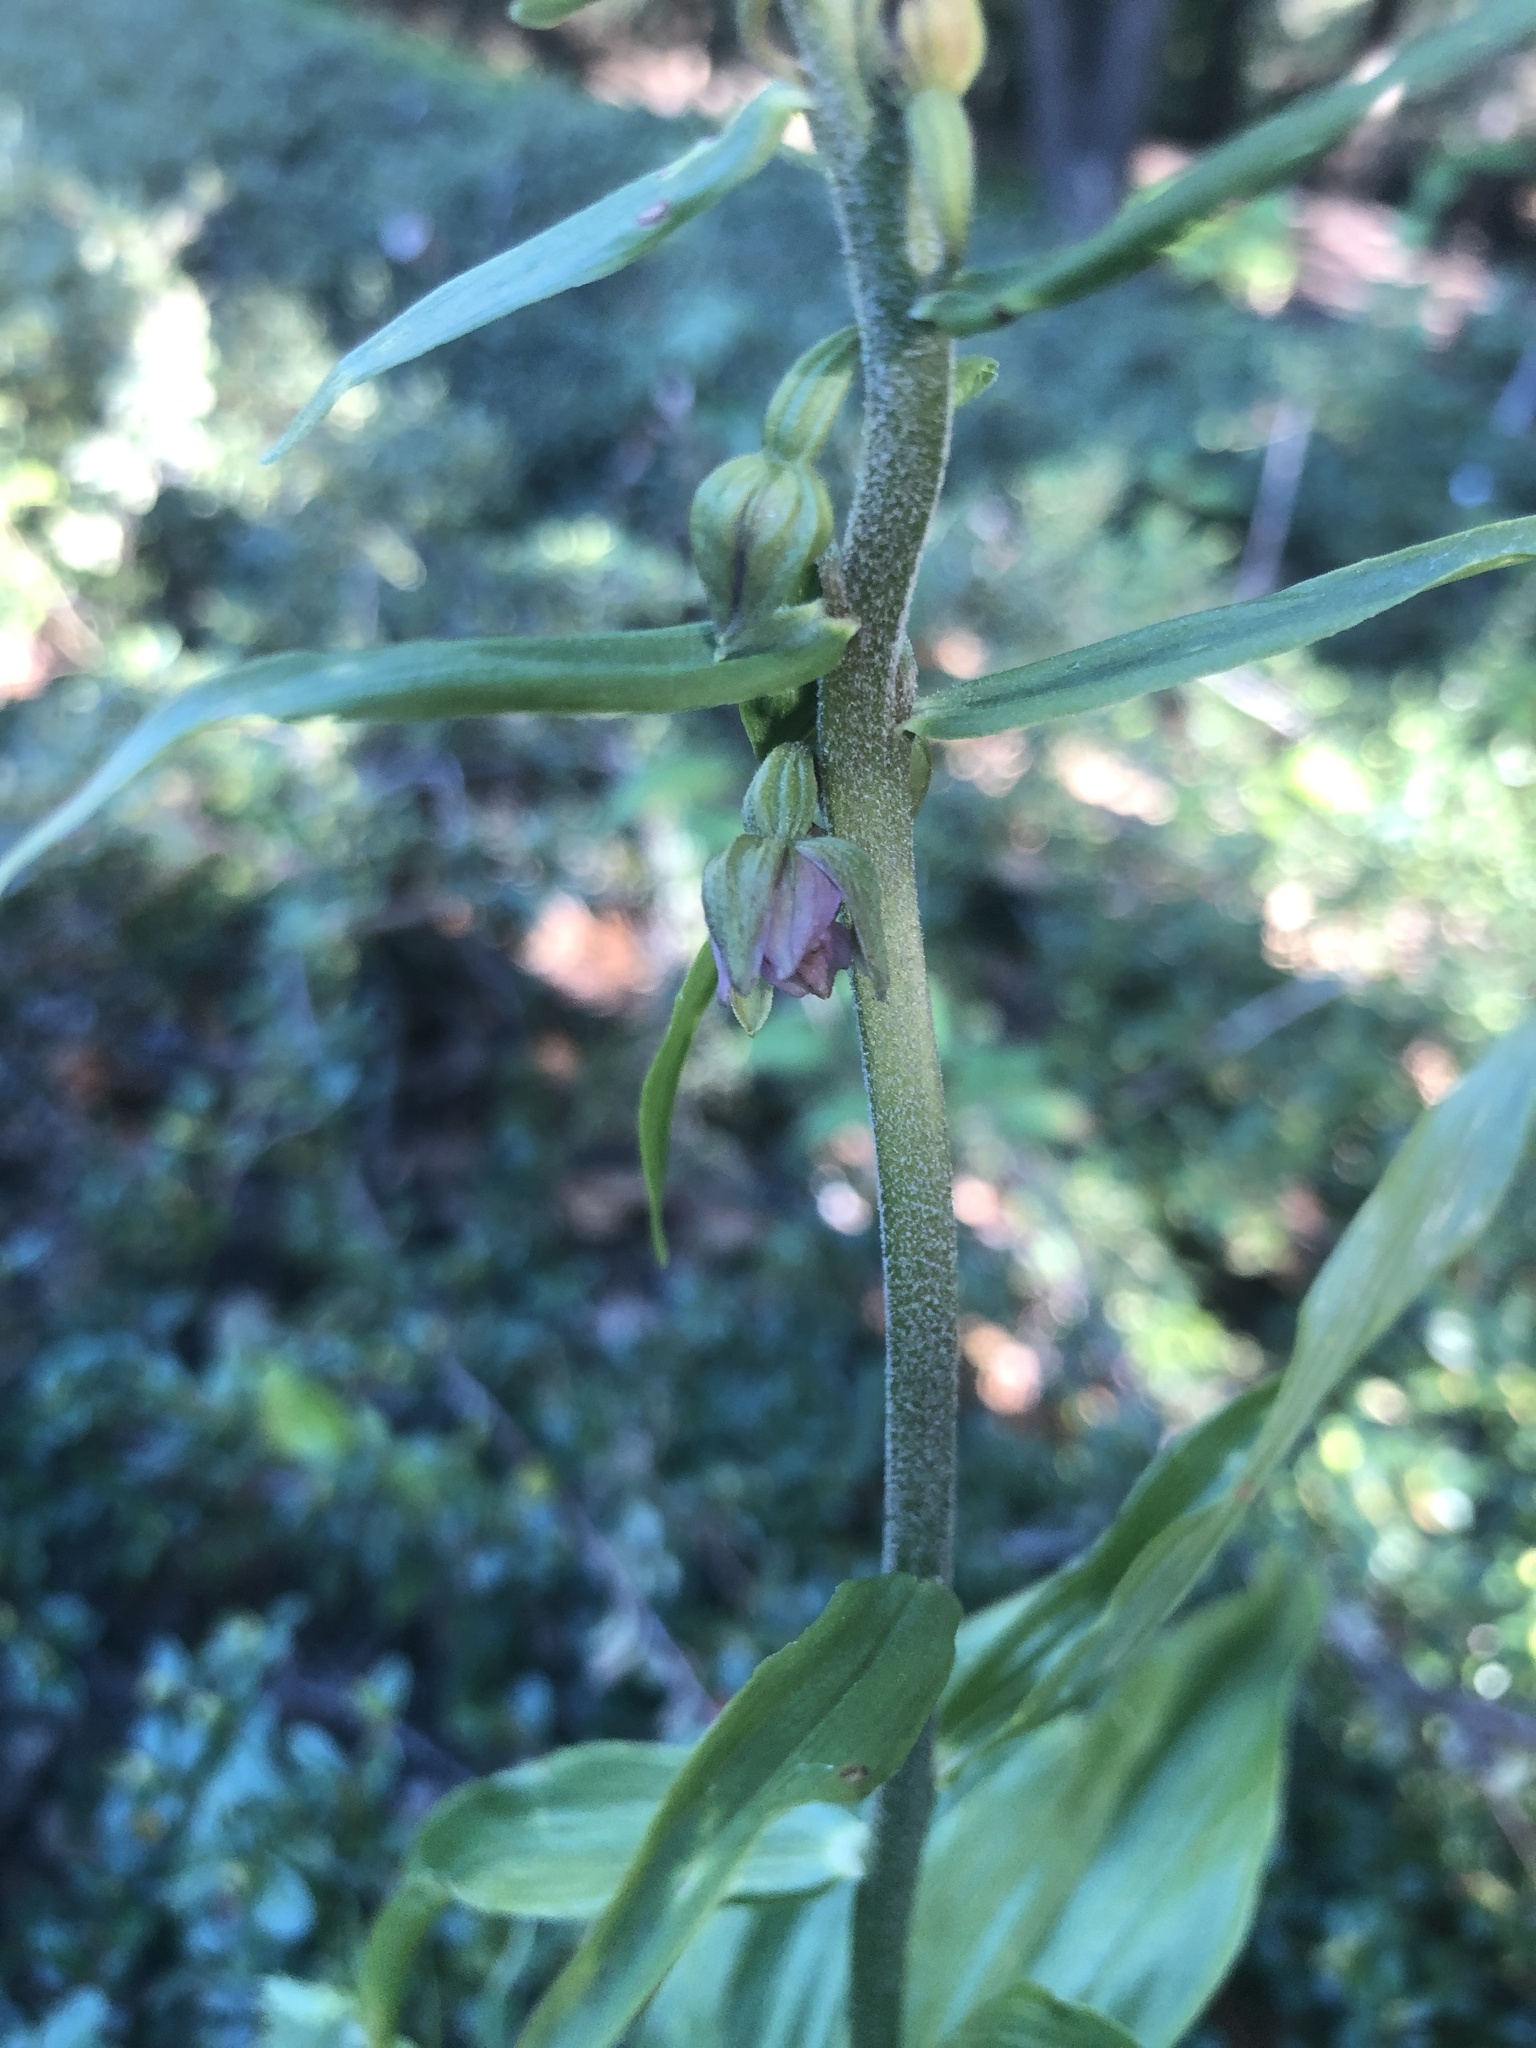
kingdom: Plantae
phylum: Tracheophyta
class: Liliopsida
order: Asparagales
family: Orchidaceae
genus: Epipactis
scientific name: Epipactis helleborine
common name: Broad-leaved helleborine
